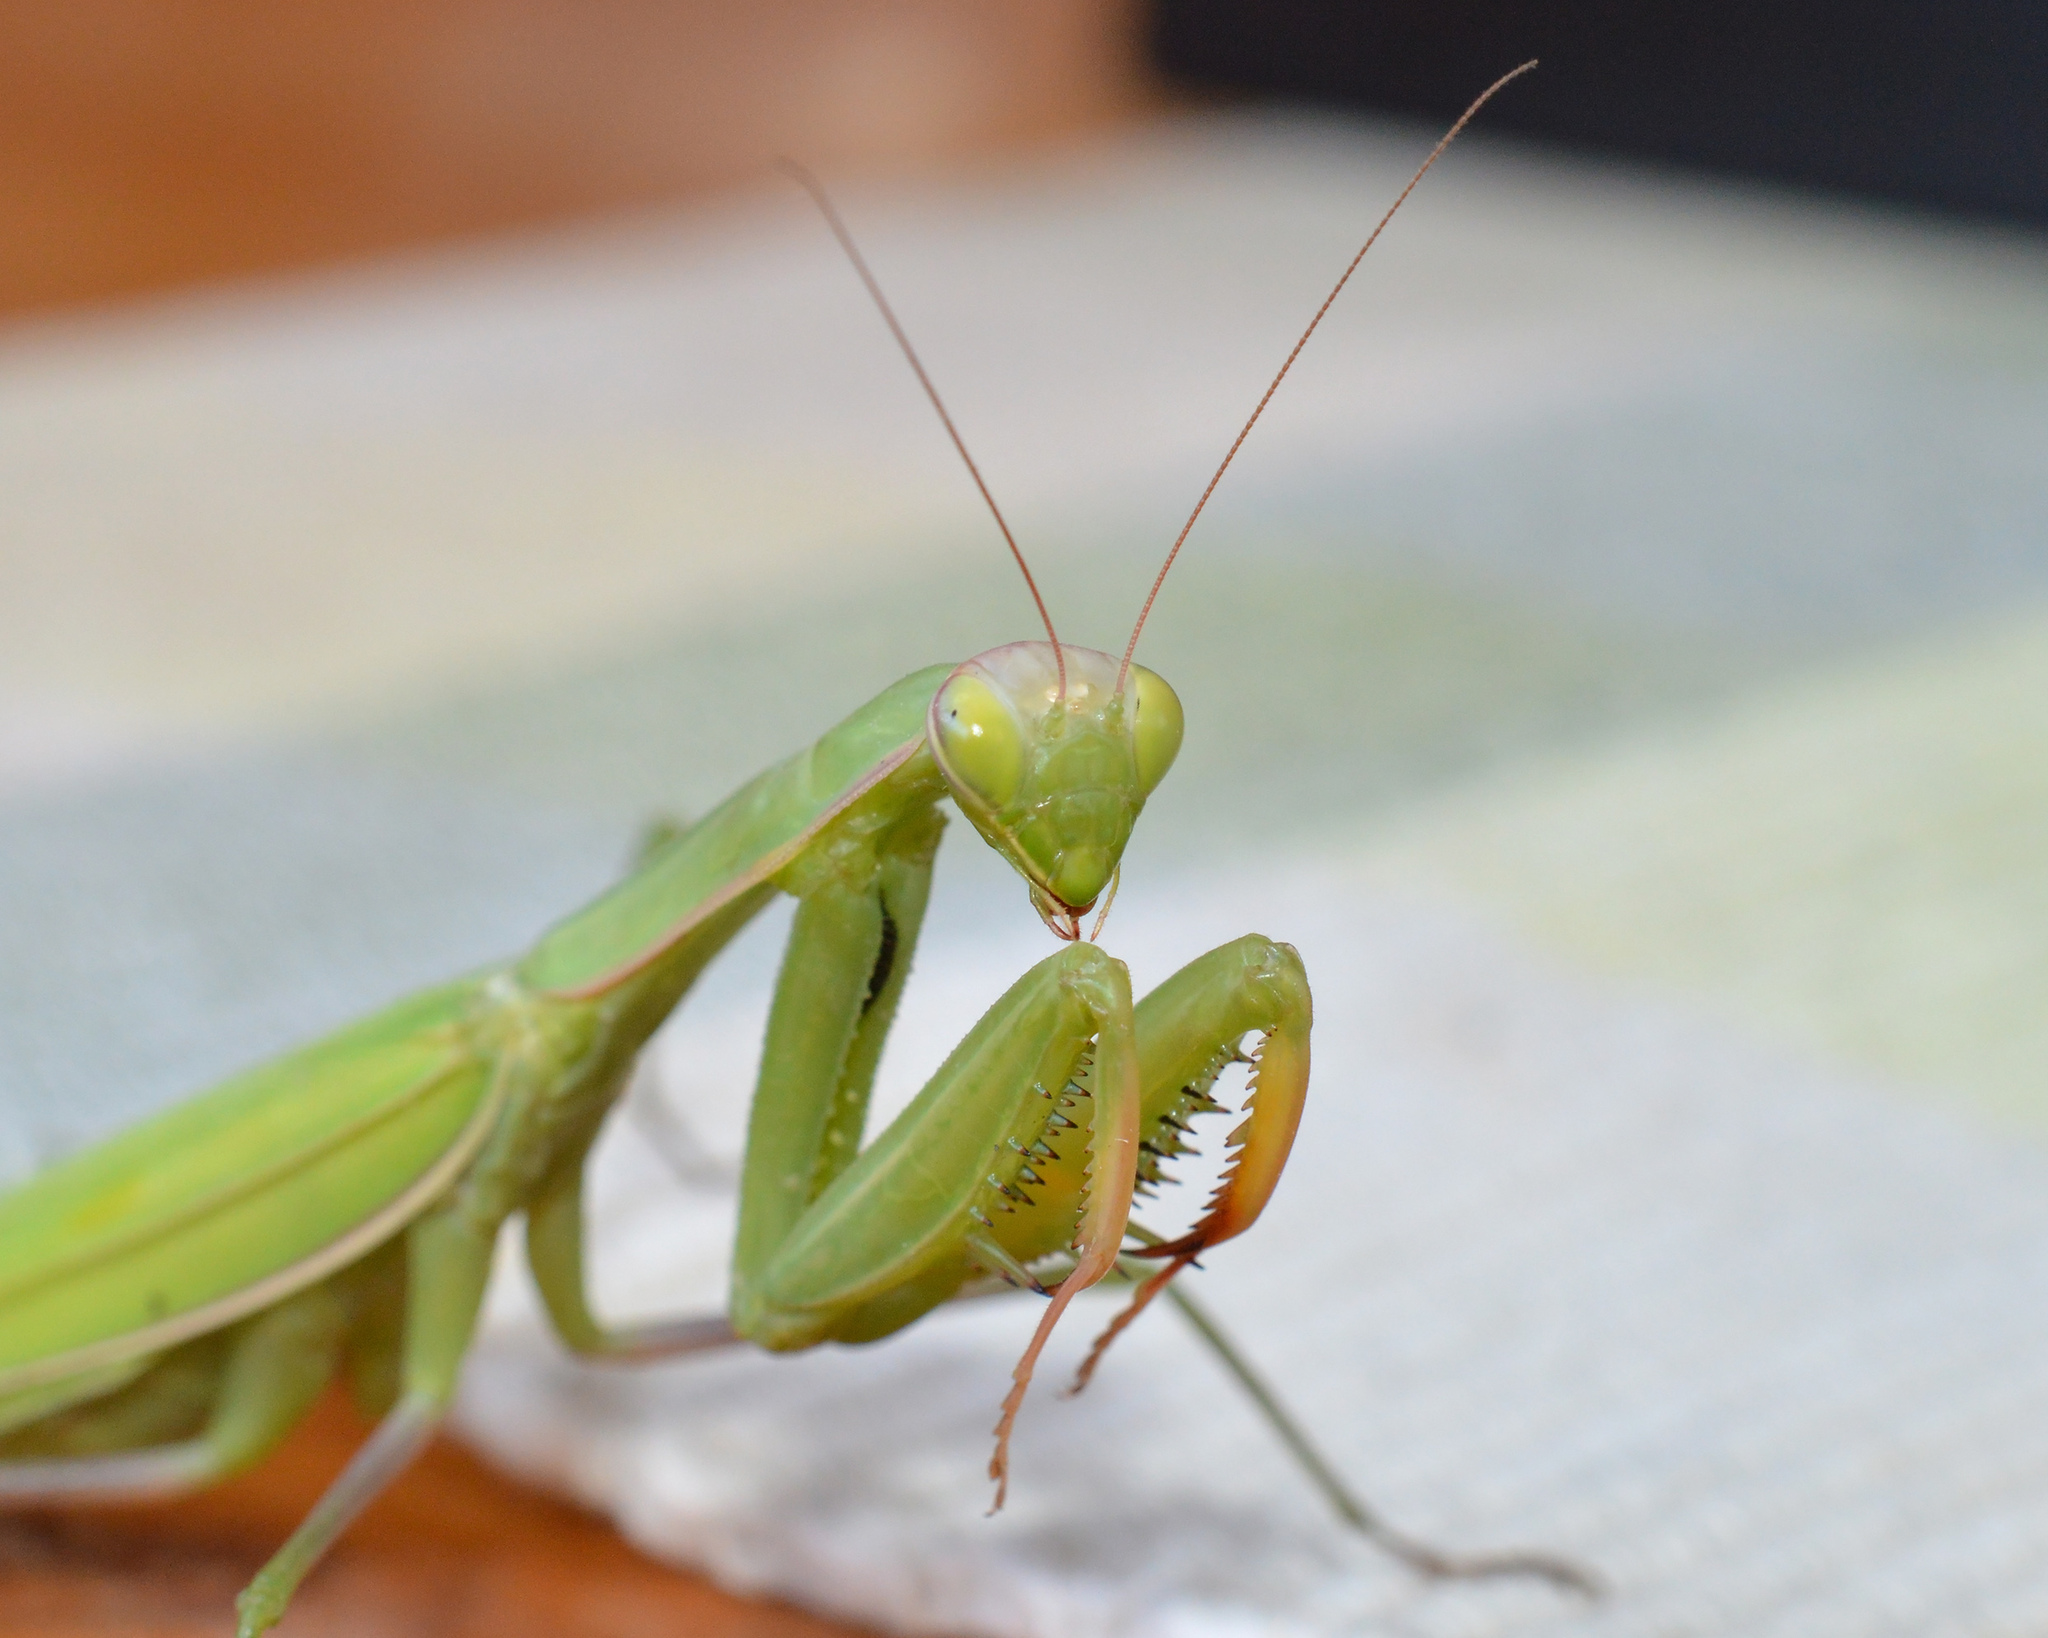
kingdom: Animalia
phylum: Arthropoda
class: Insecta
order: Mantodea
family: Mantidae
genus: Mantis
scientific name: Mantis religiosa
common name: Praying mantis
